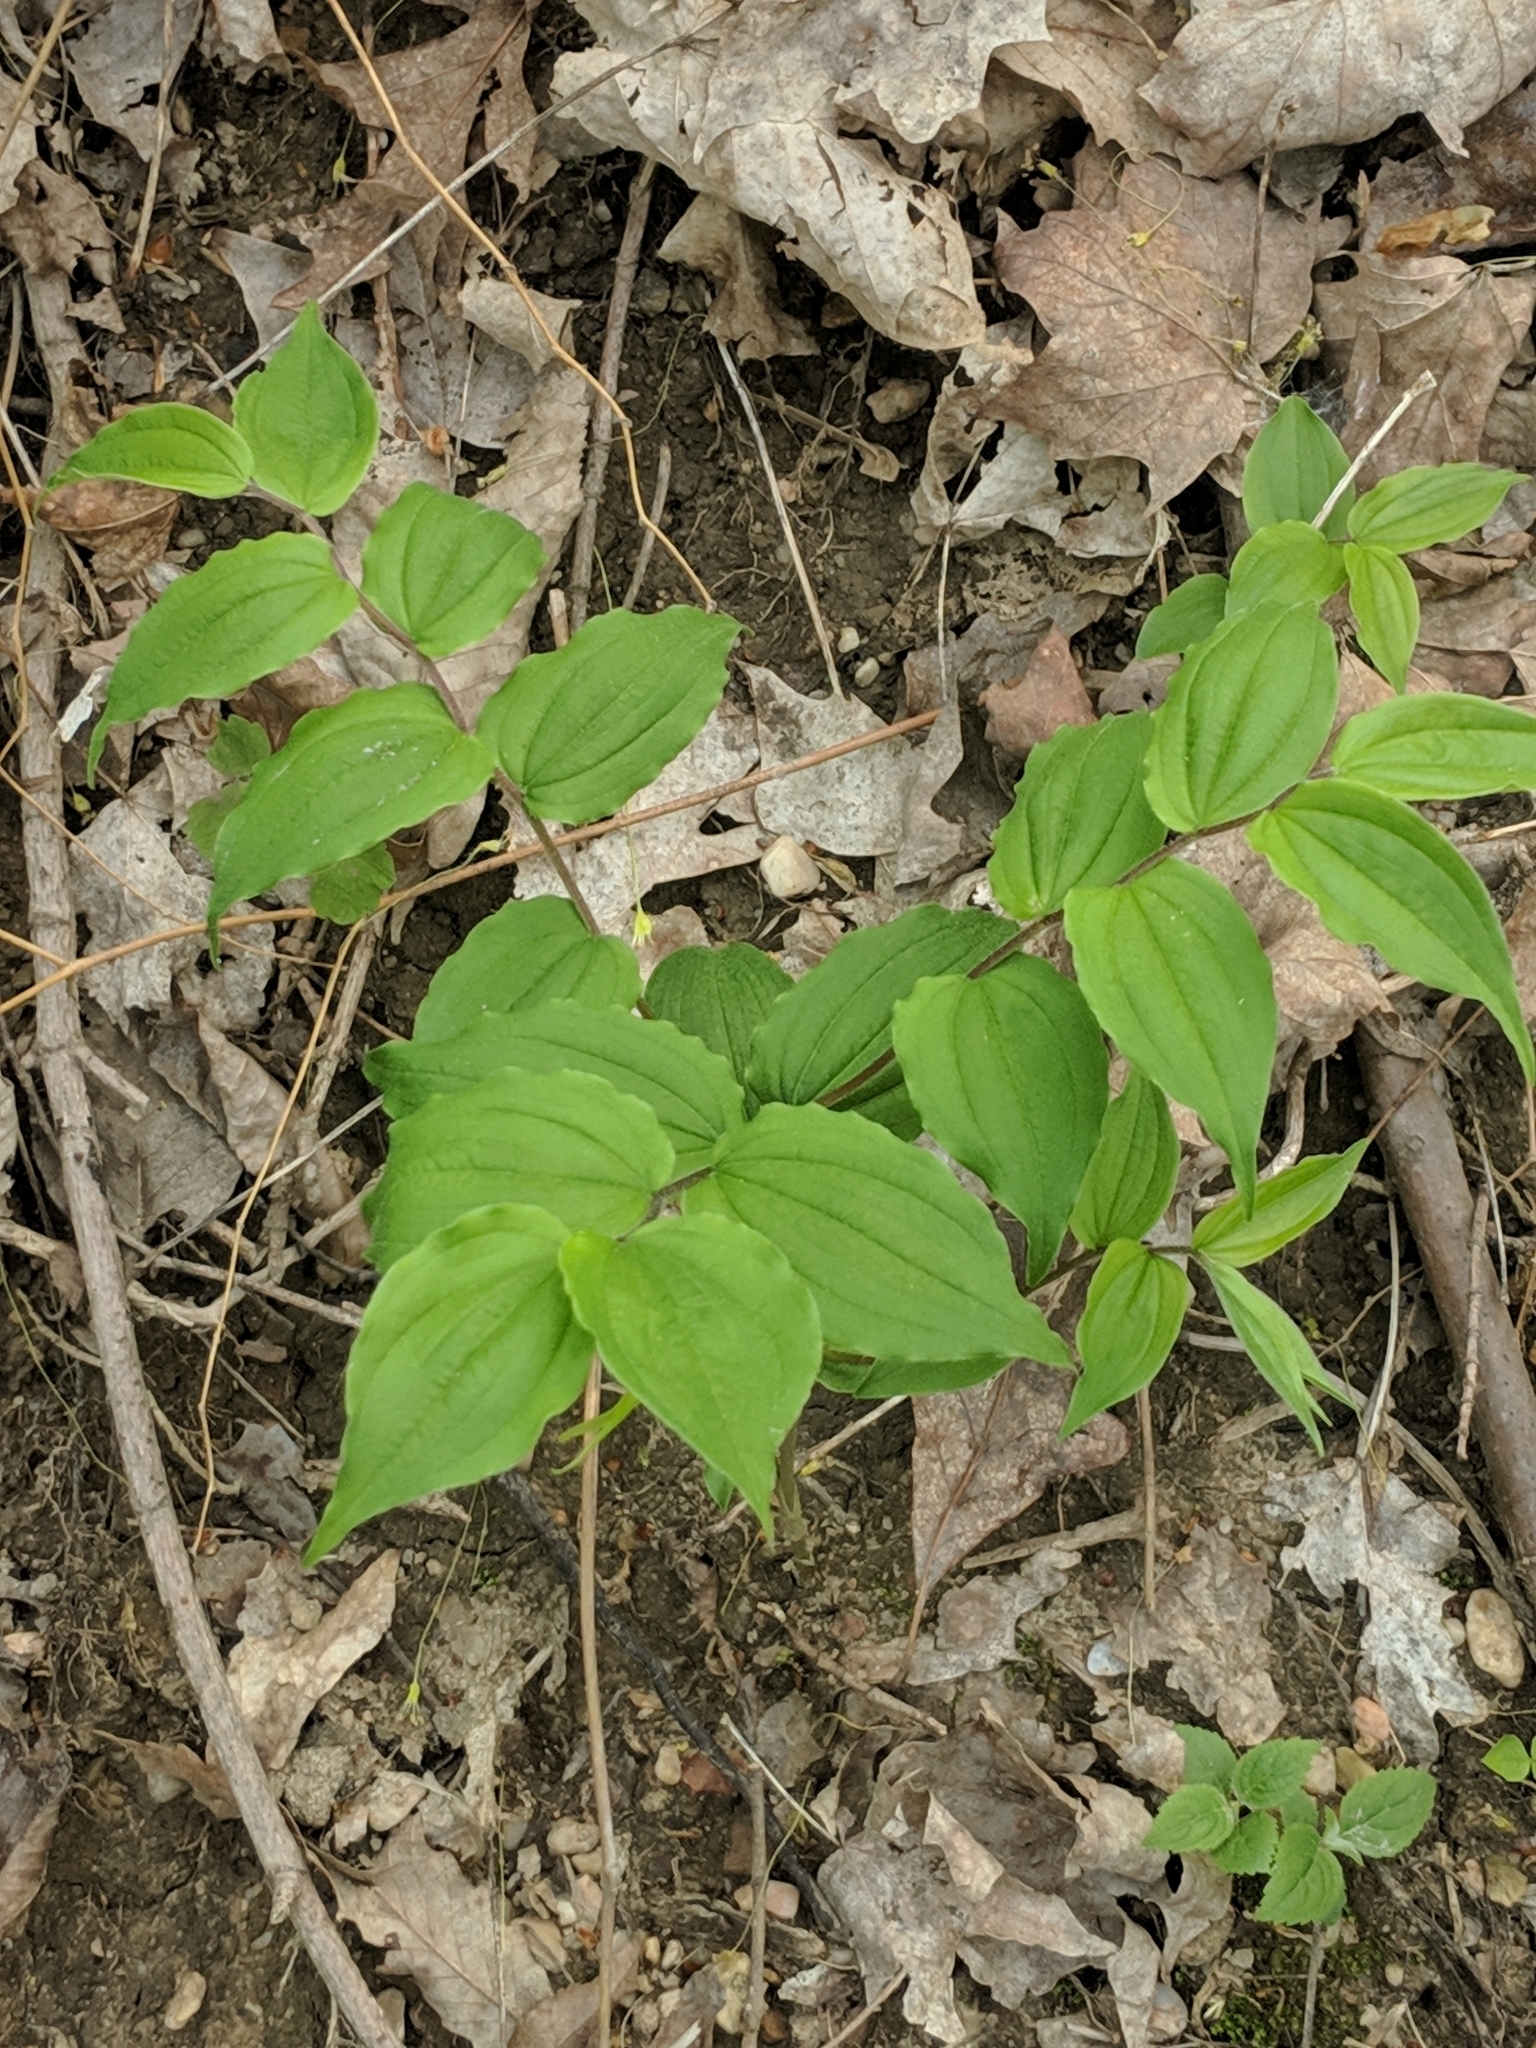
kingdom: Plantae
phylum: Tracheophyta
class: Liliopsida
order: Liliales
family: Liliaceae
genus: Prosartes
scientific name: Prosartes lanuginosa
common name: Hairy mandarin
